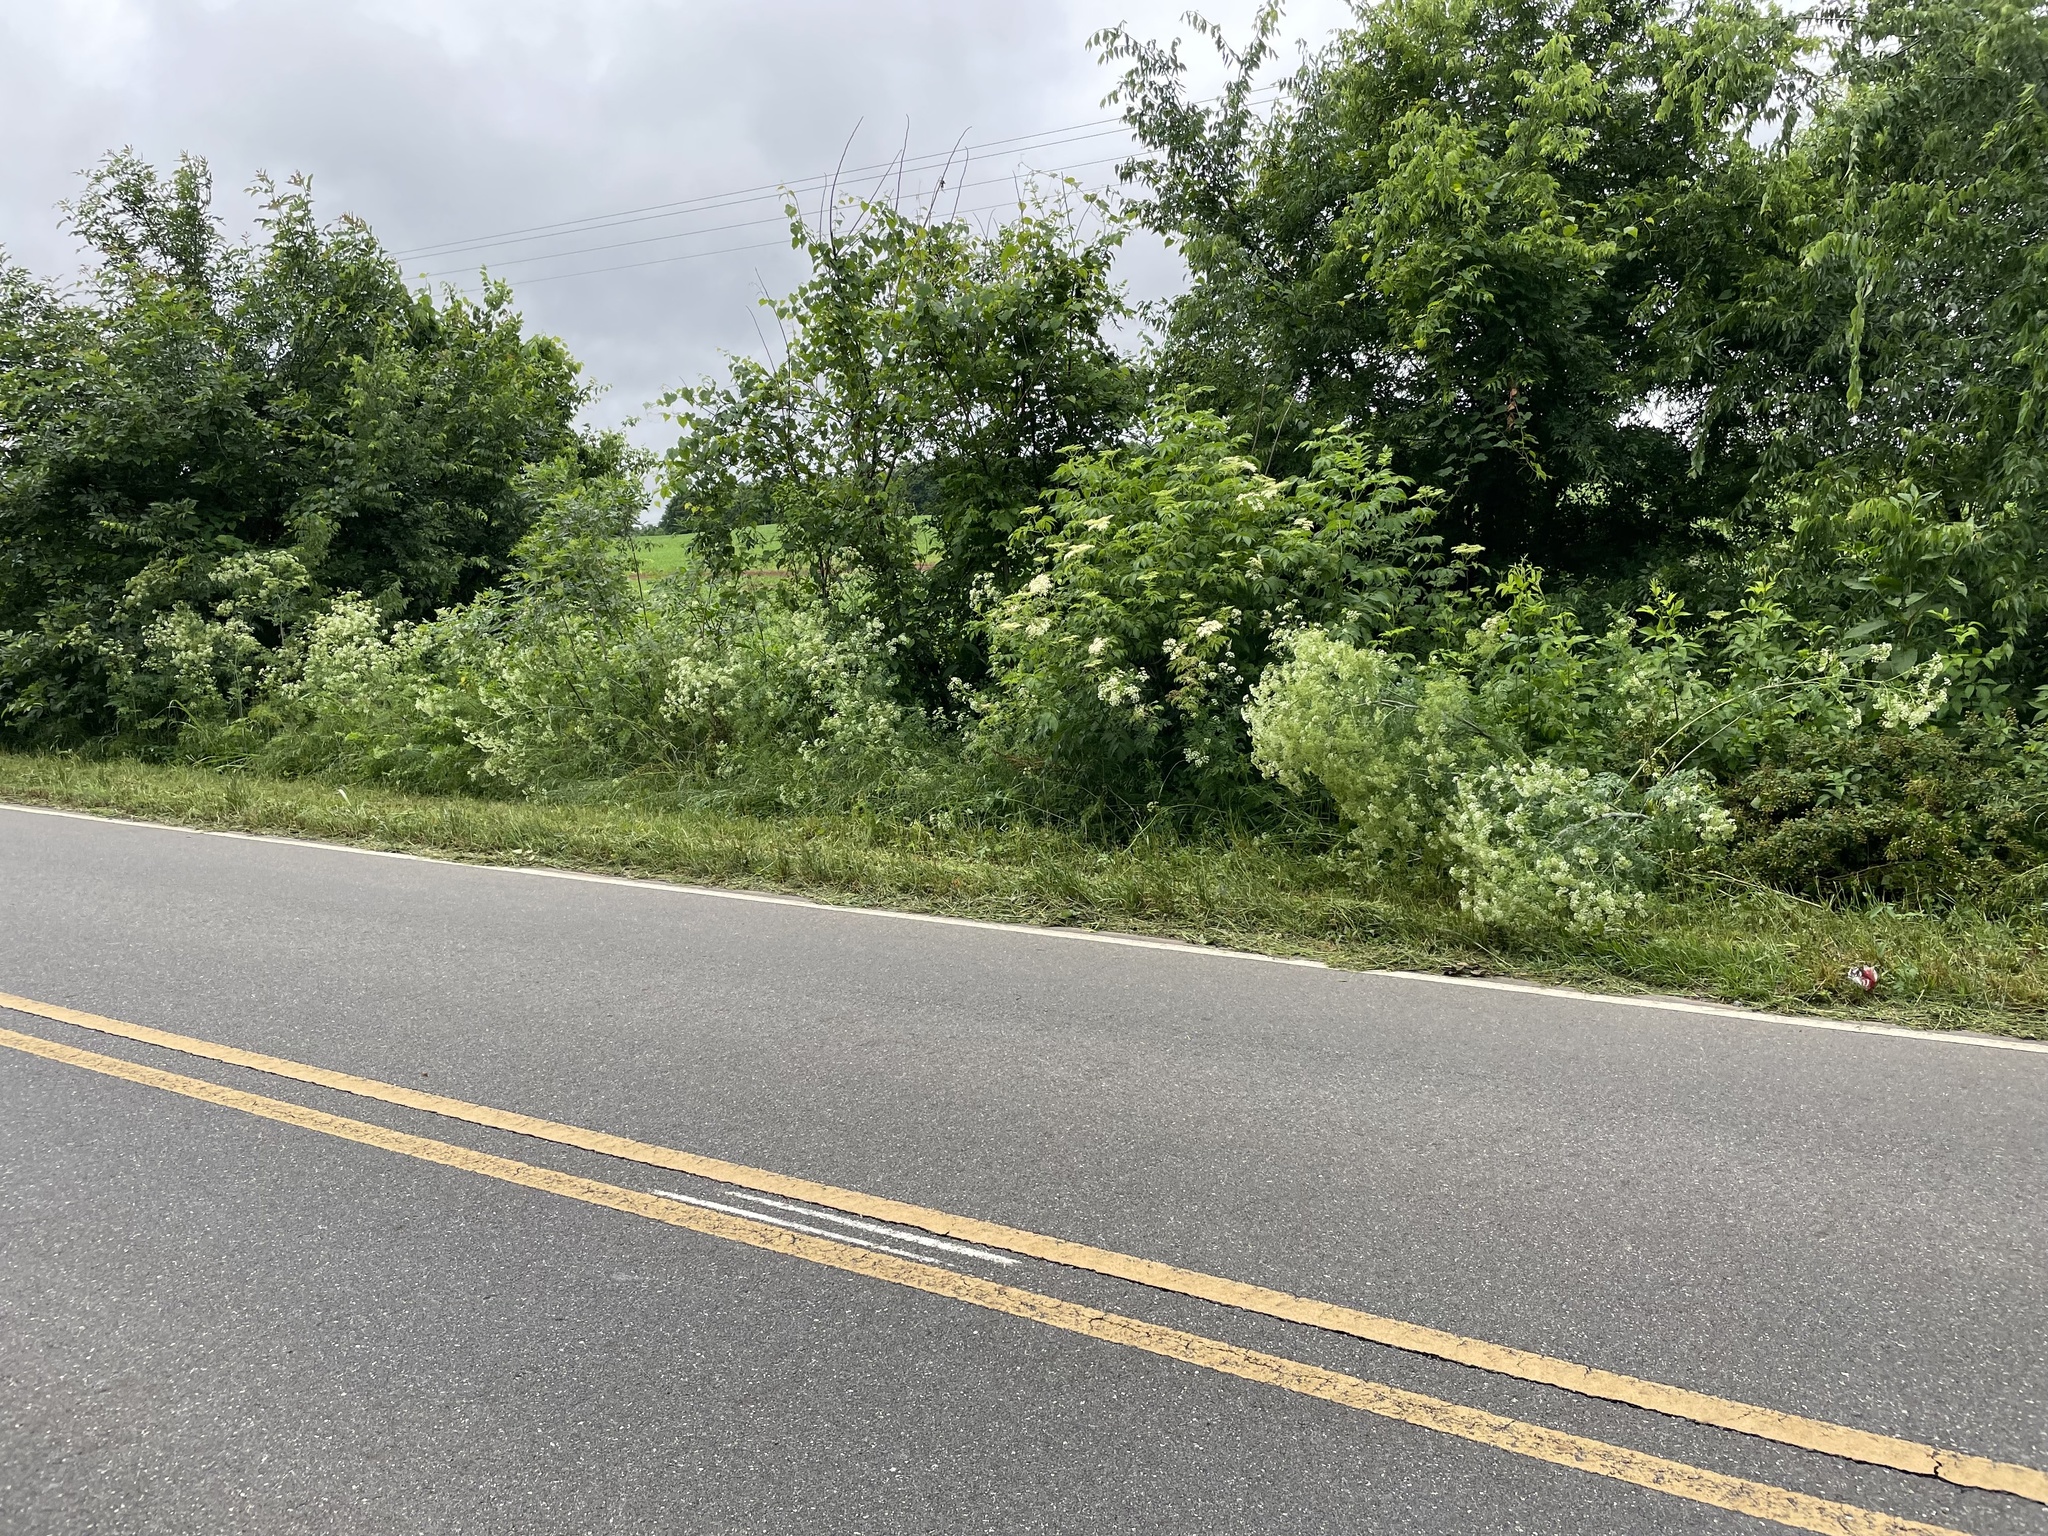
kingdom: Plantae
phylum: Tracheophyta
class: Magnoliopsida
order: Apiales
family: Apiaceae
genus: Conium
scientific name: Conium maculatum
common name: Hemlock
